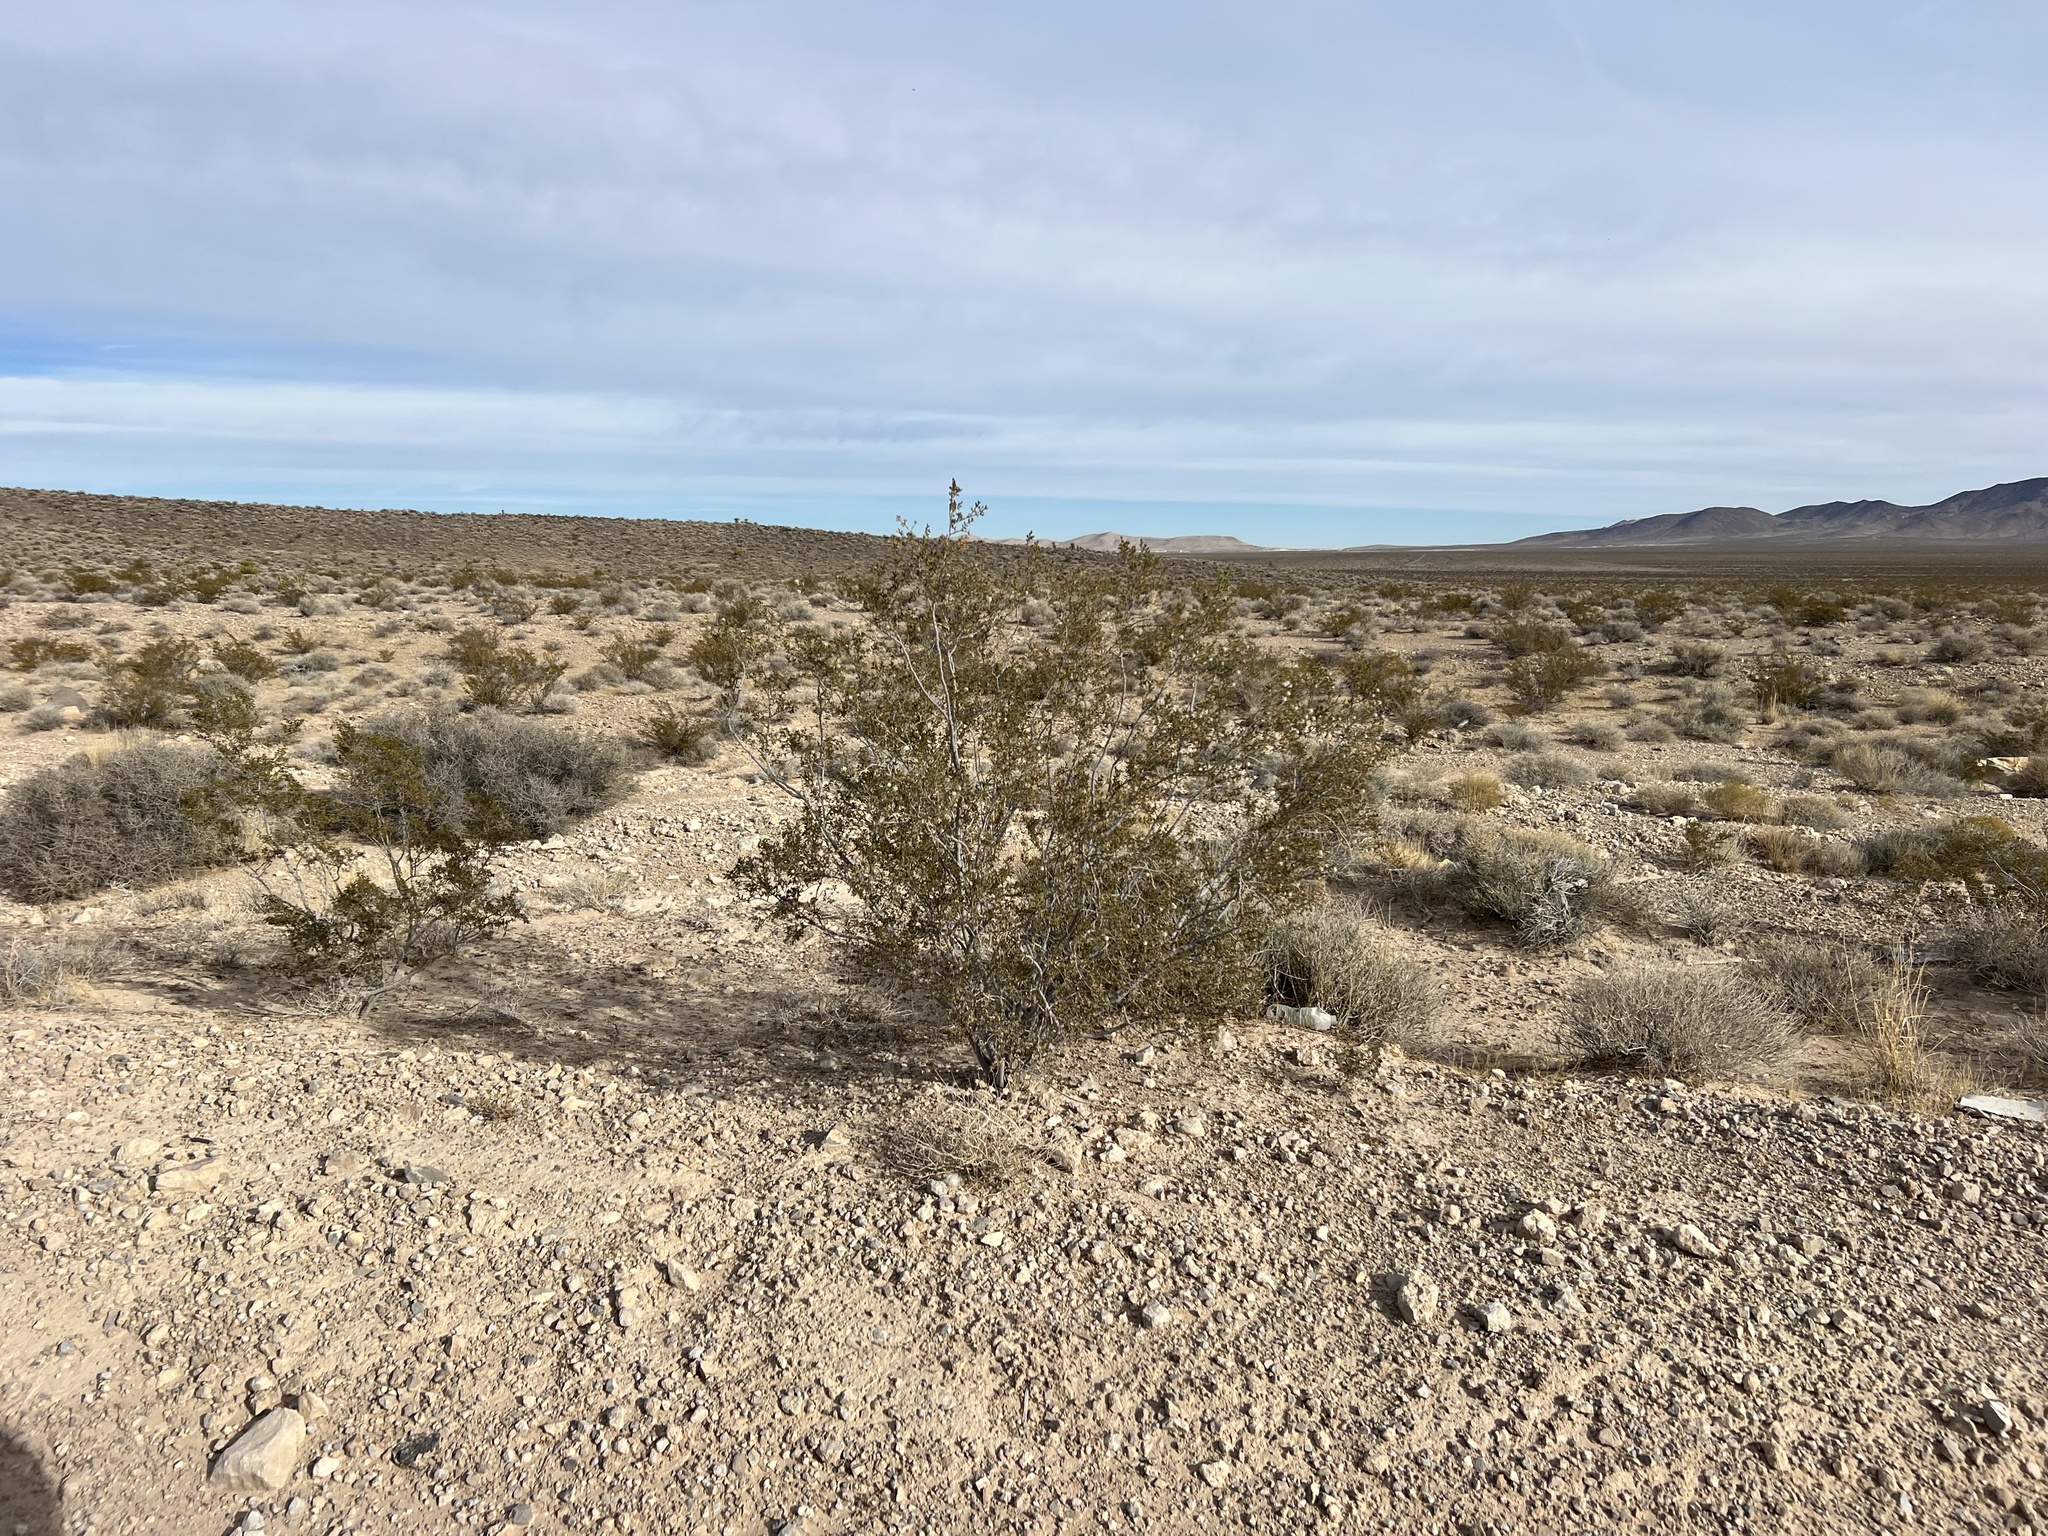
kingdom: Plantae
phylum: Tracheophyta
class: Magnoliopsida
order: Zygophyllales
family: Zygophyllaceae
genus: Larrea
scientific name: Larrea tridentata
